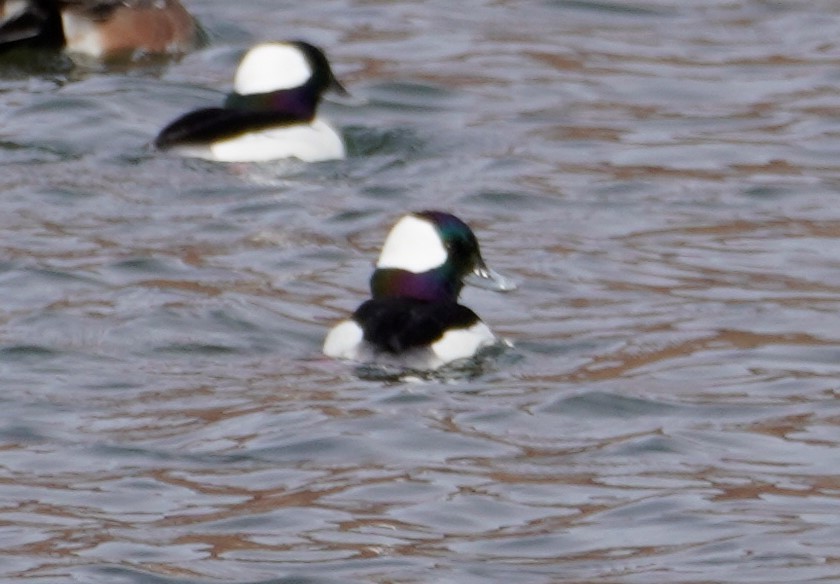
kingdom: Animalia
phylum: Chordata
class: Aves
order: Anseriformes
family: Anatidae
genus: Bucephala
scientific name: Bucephala albeola
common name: Bufflehead
